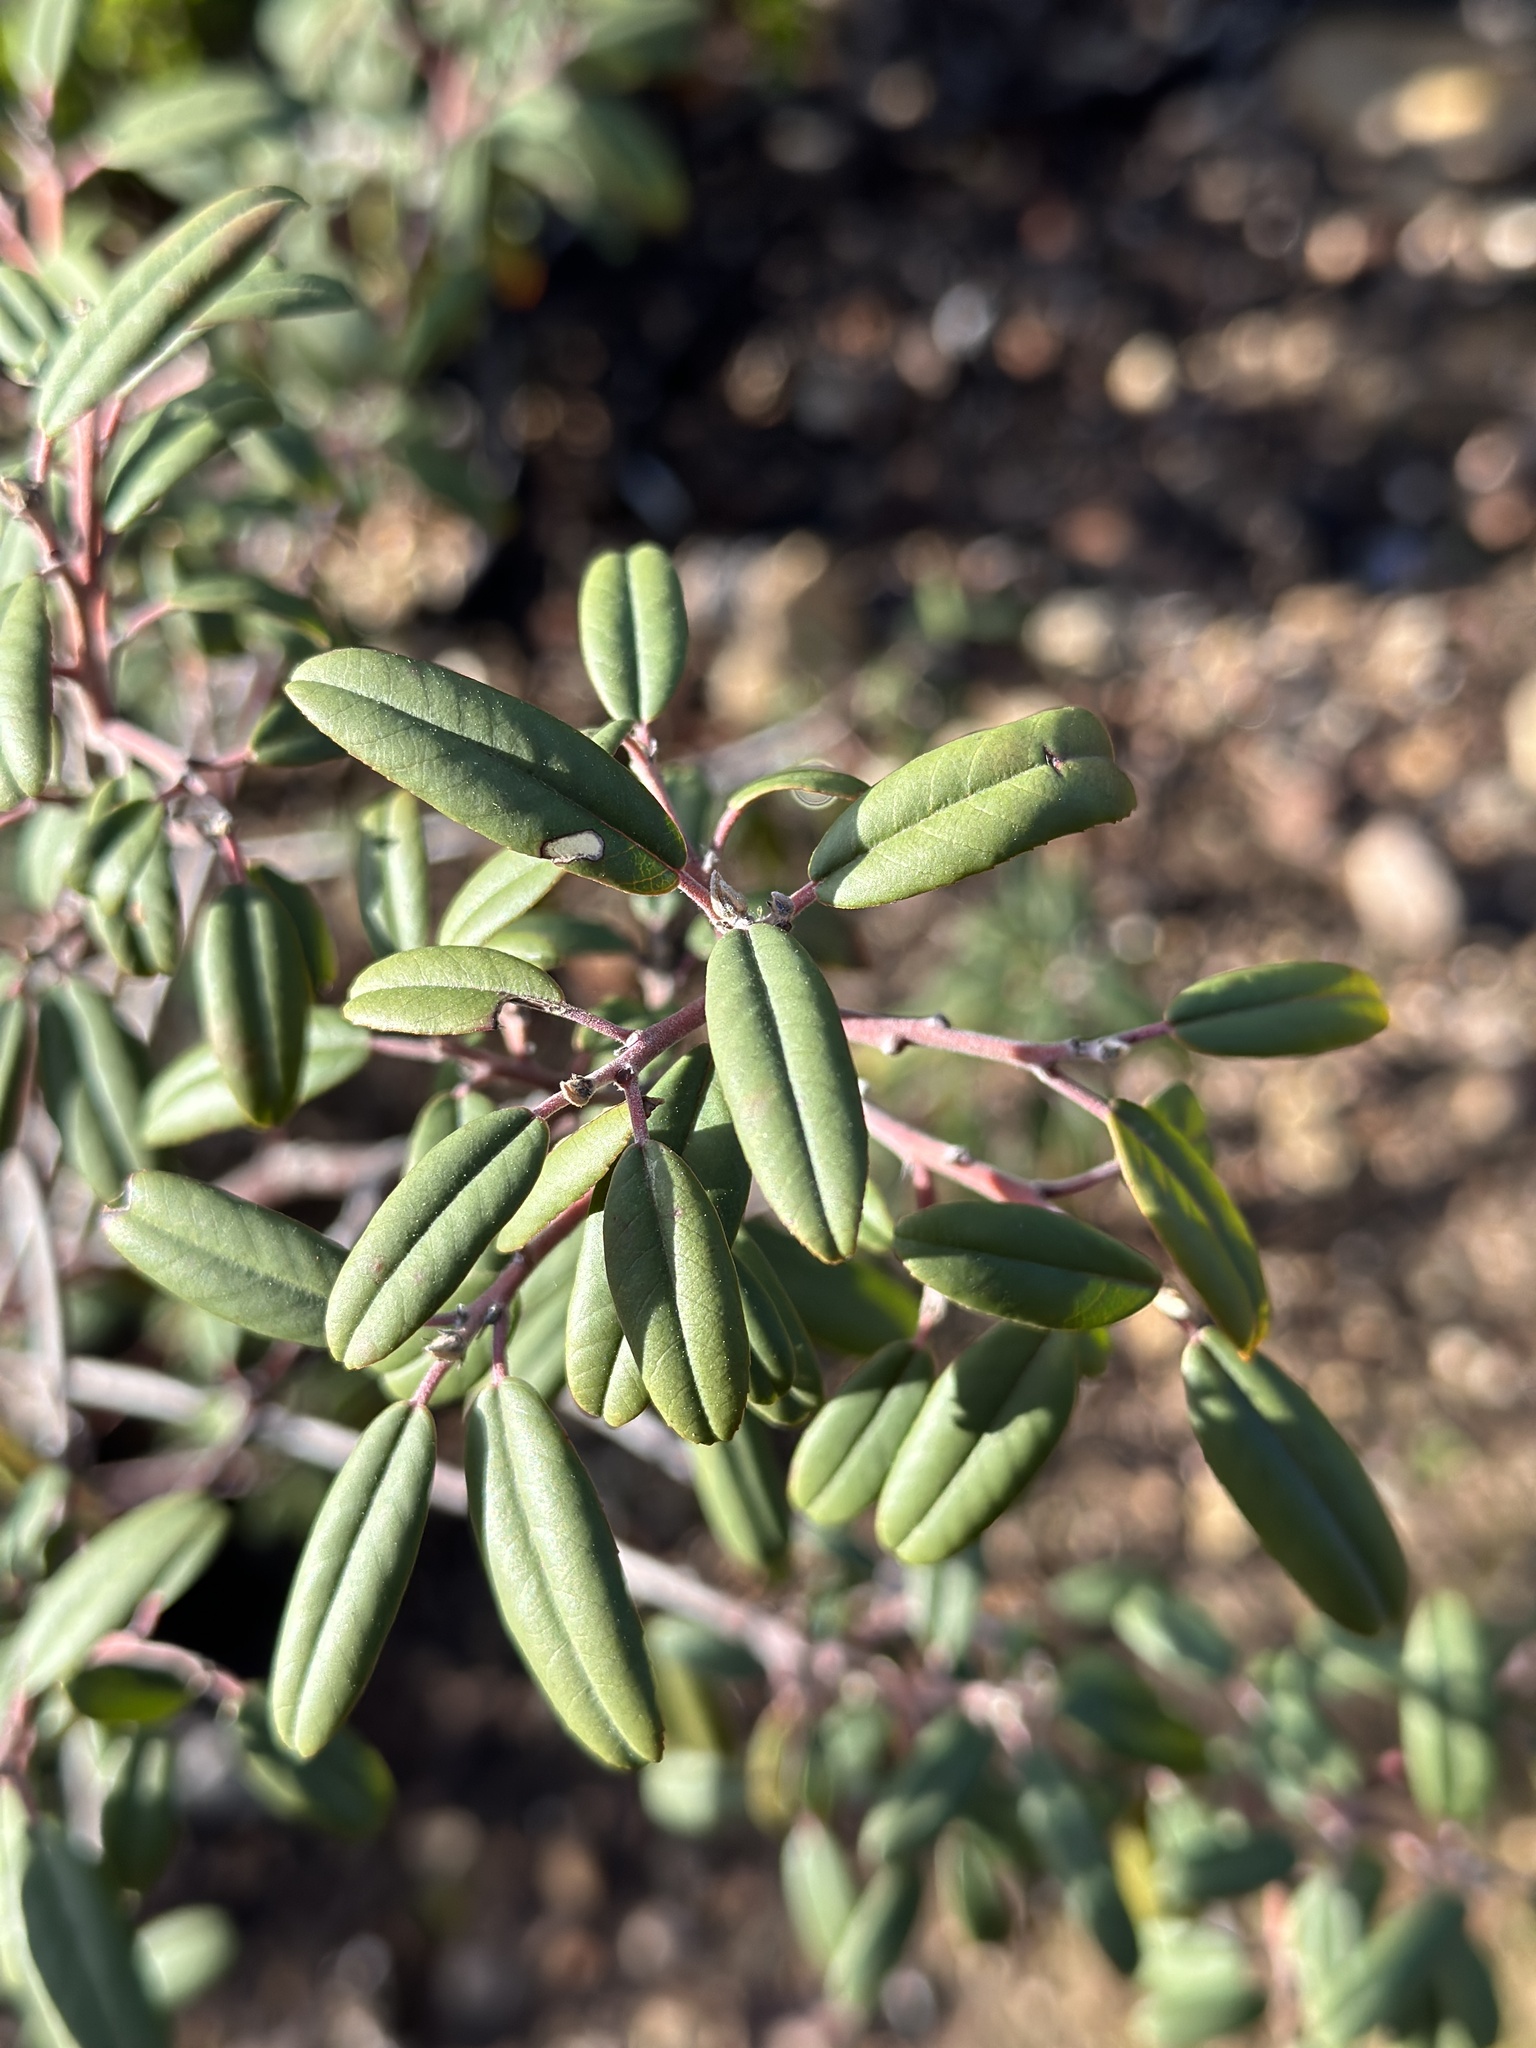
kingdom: Plantae
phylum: Tracheophyta
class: Magnoliopsida
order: Rosales
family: Rhamnaceae
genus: Frangula
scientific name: Frangula californica
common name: California buckthorn
